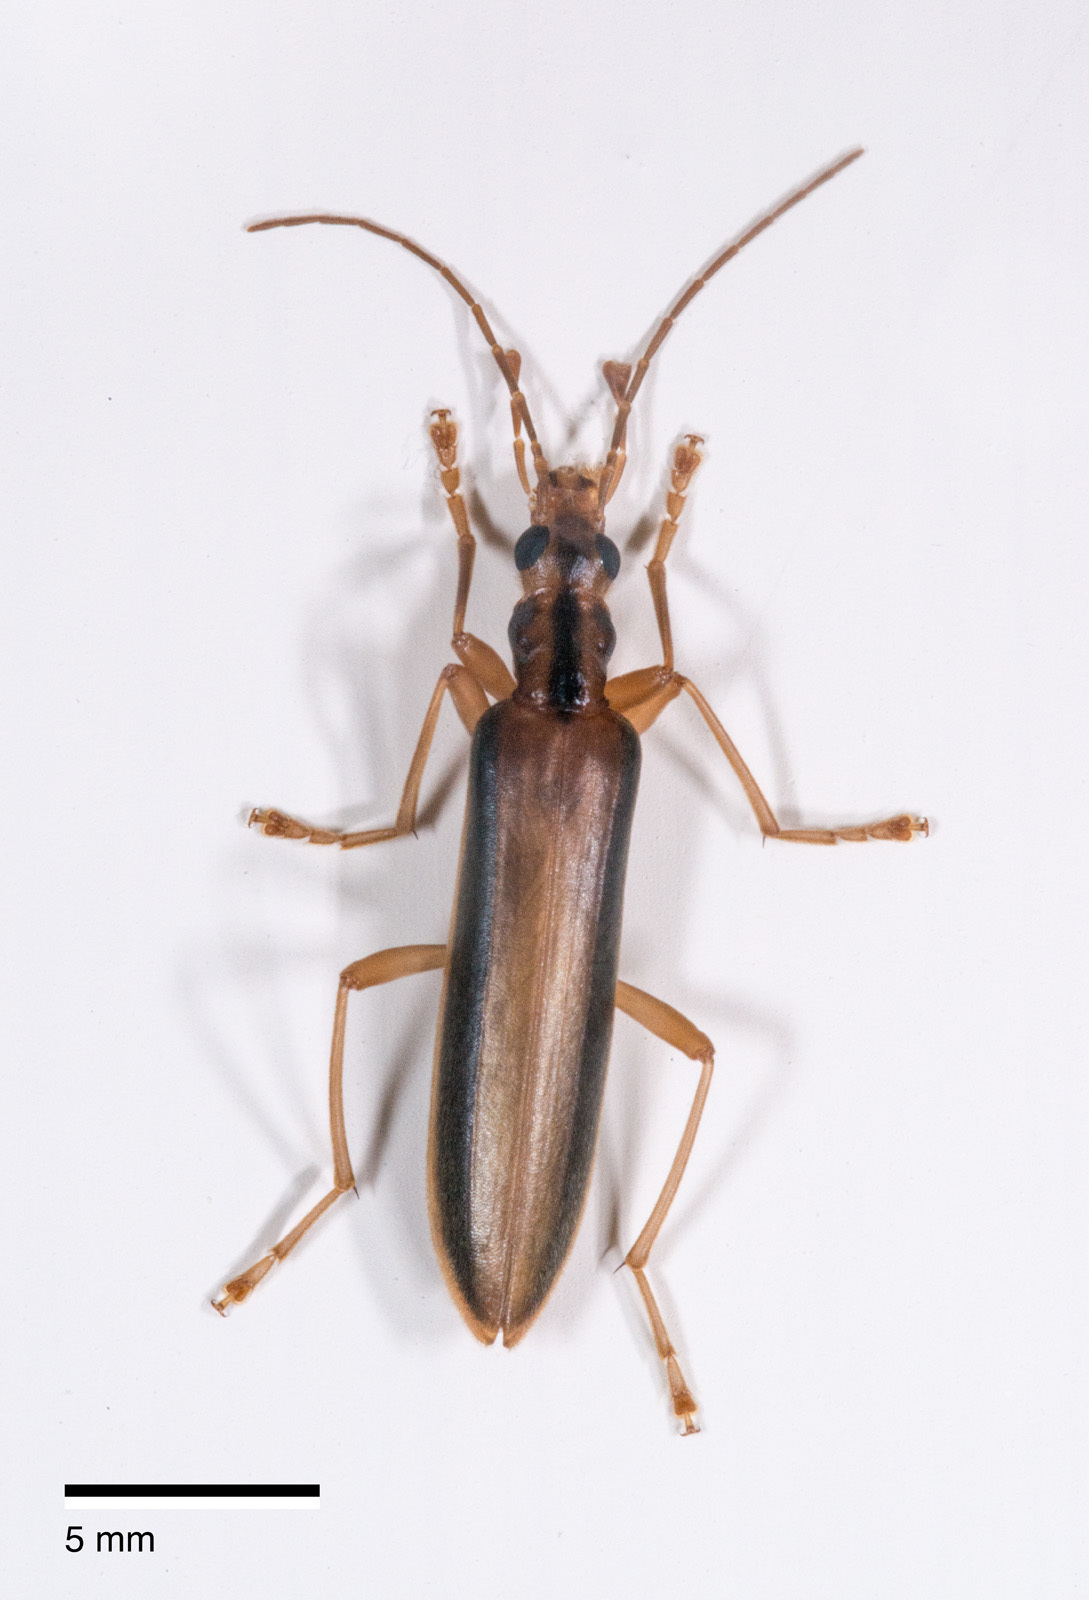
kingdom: Animalia
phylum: Arthropoda
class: Insecta
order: Coleoptera
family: Oedemeridae
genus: Thelyphassa
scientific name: Thelyphassa
